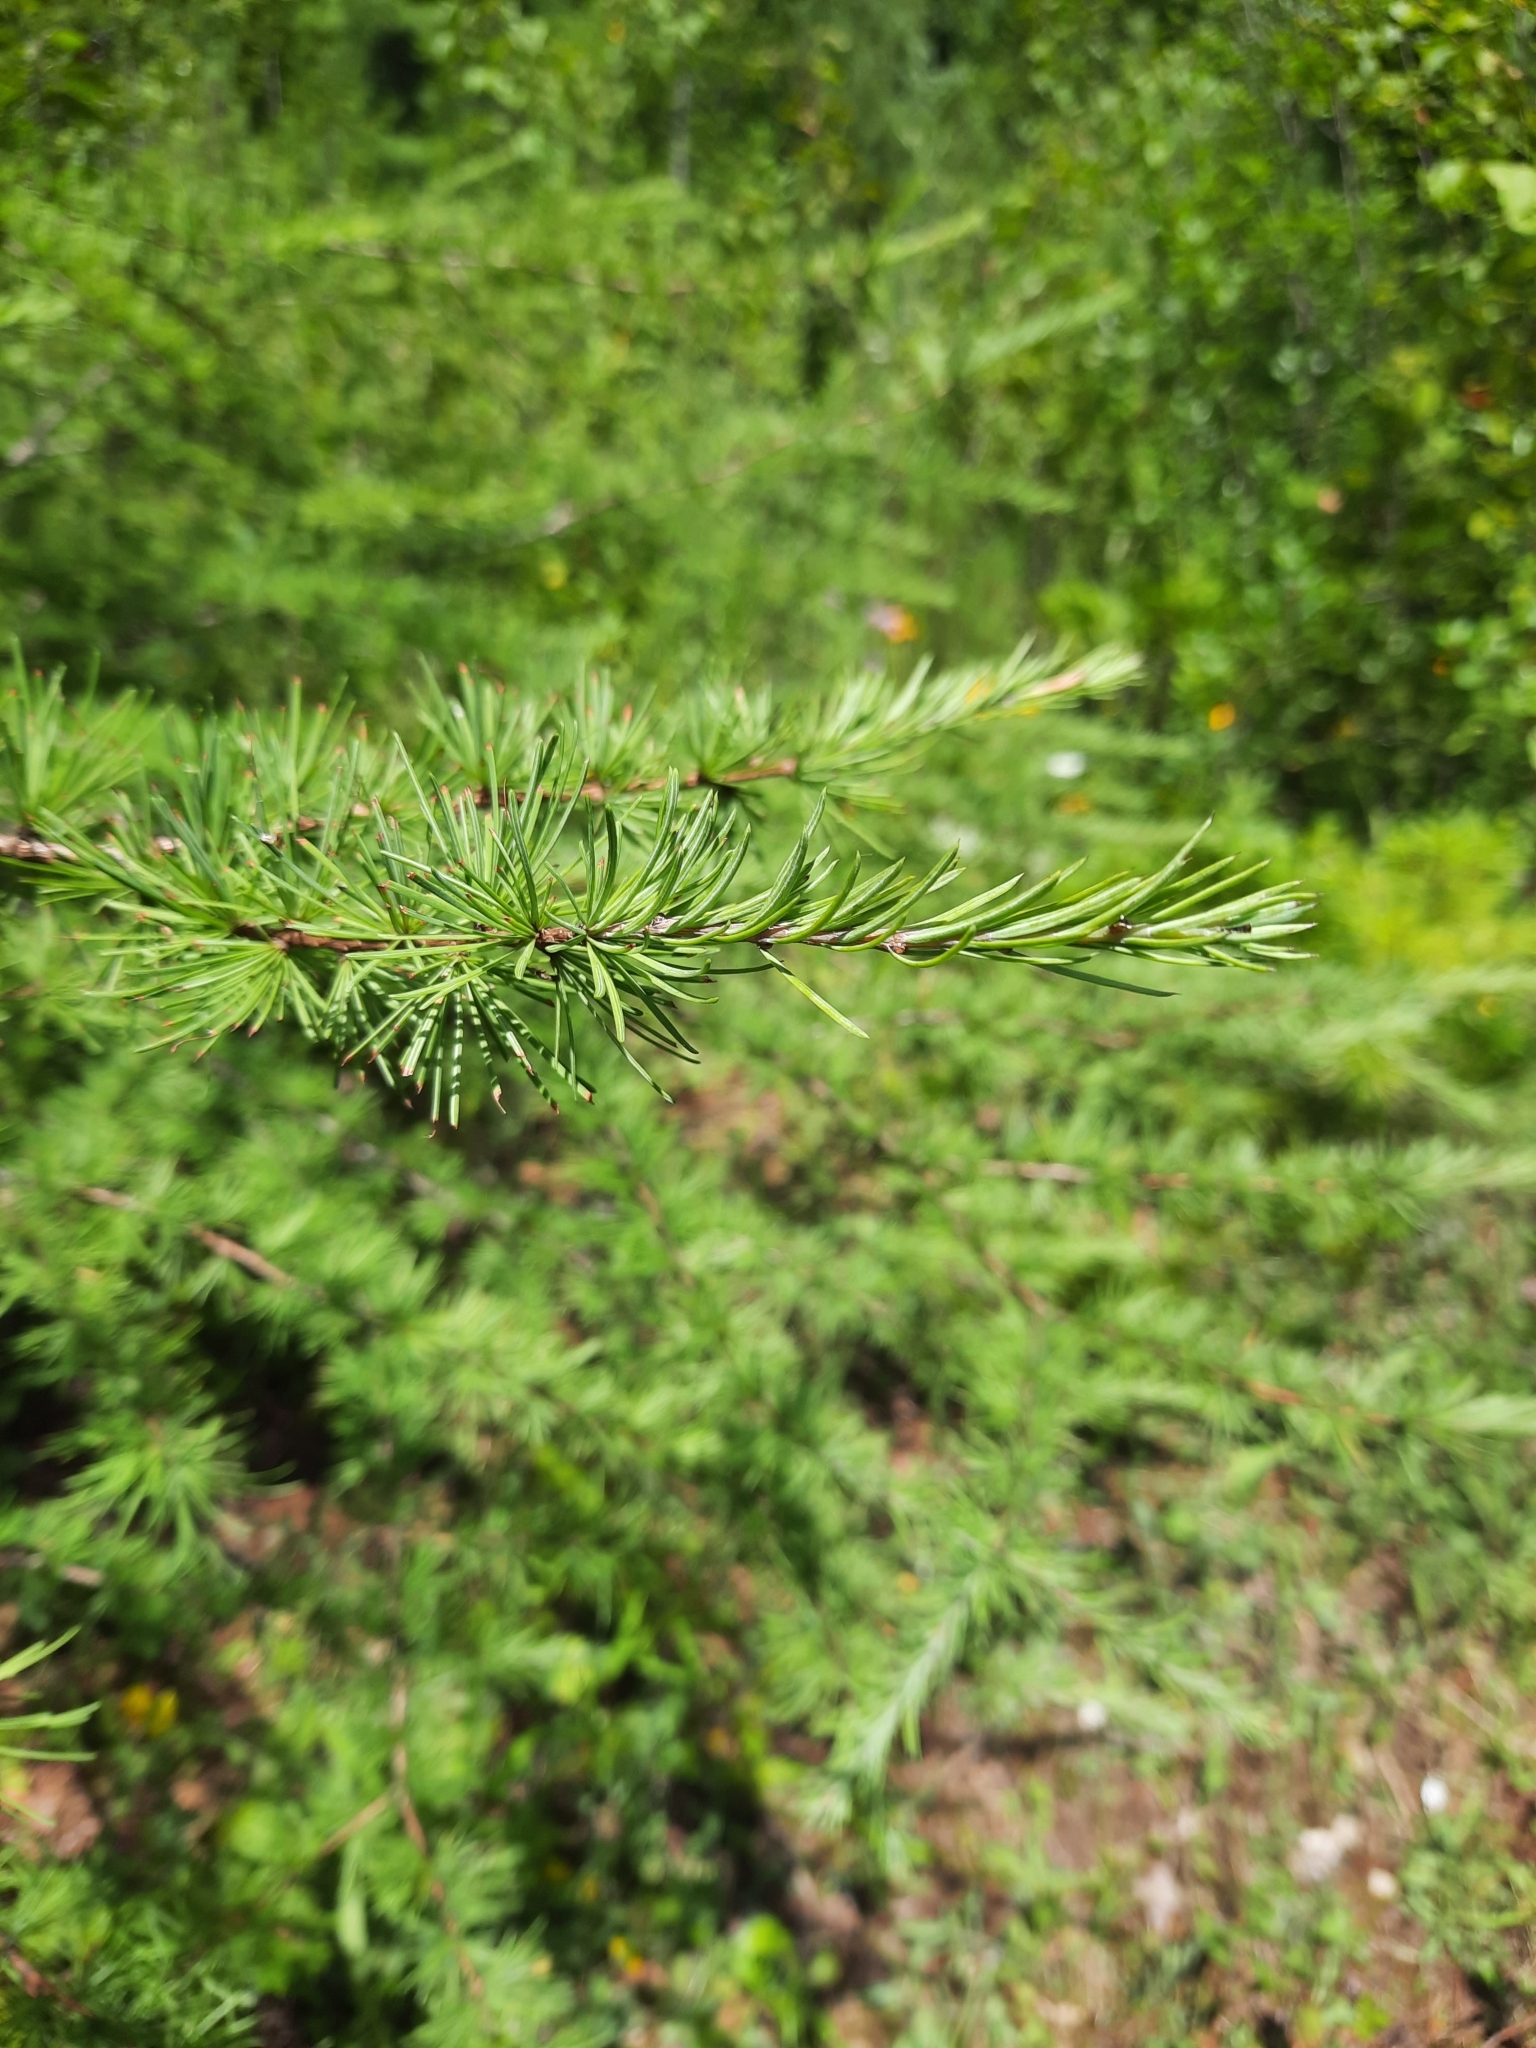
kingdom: Plantae
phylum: Tracheophyta
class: Pinopsida
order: Pinales
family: Pinaceae
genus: Larix
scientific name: Larix laricina
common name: American larch
